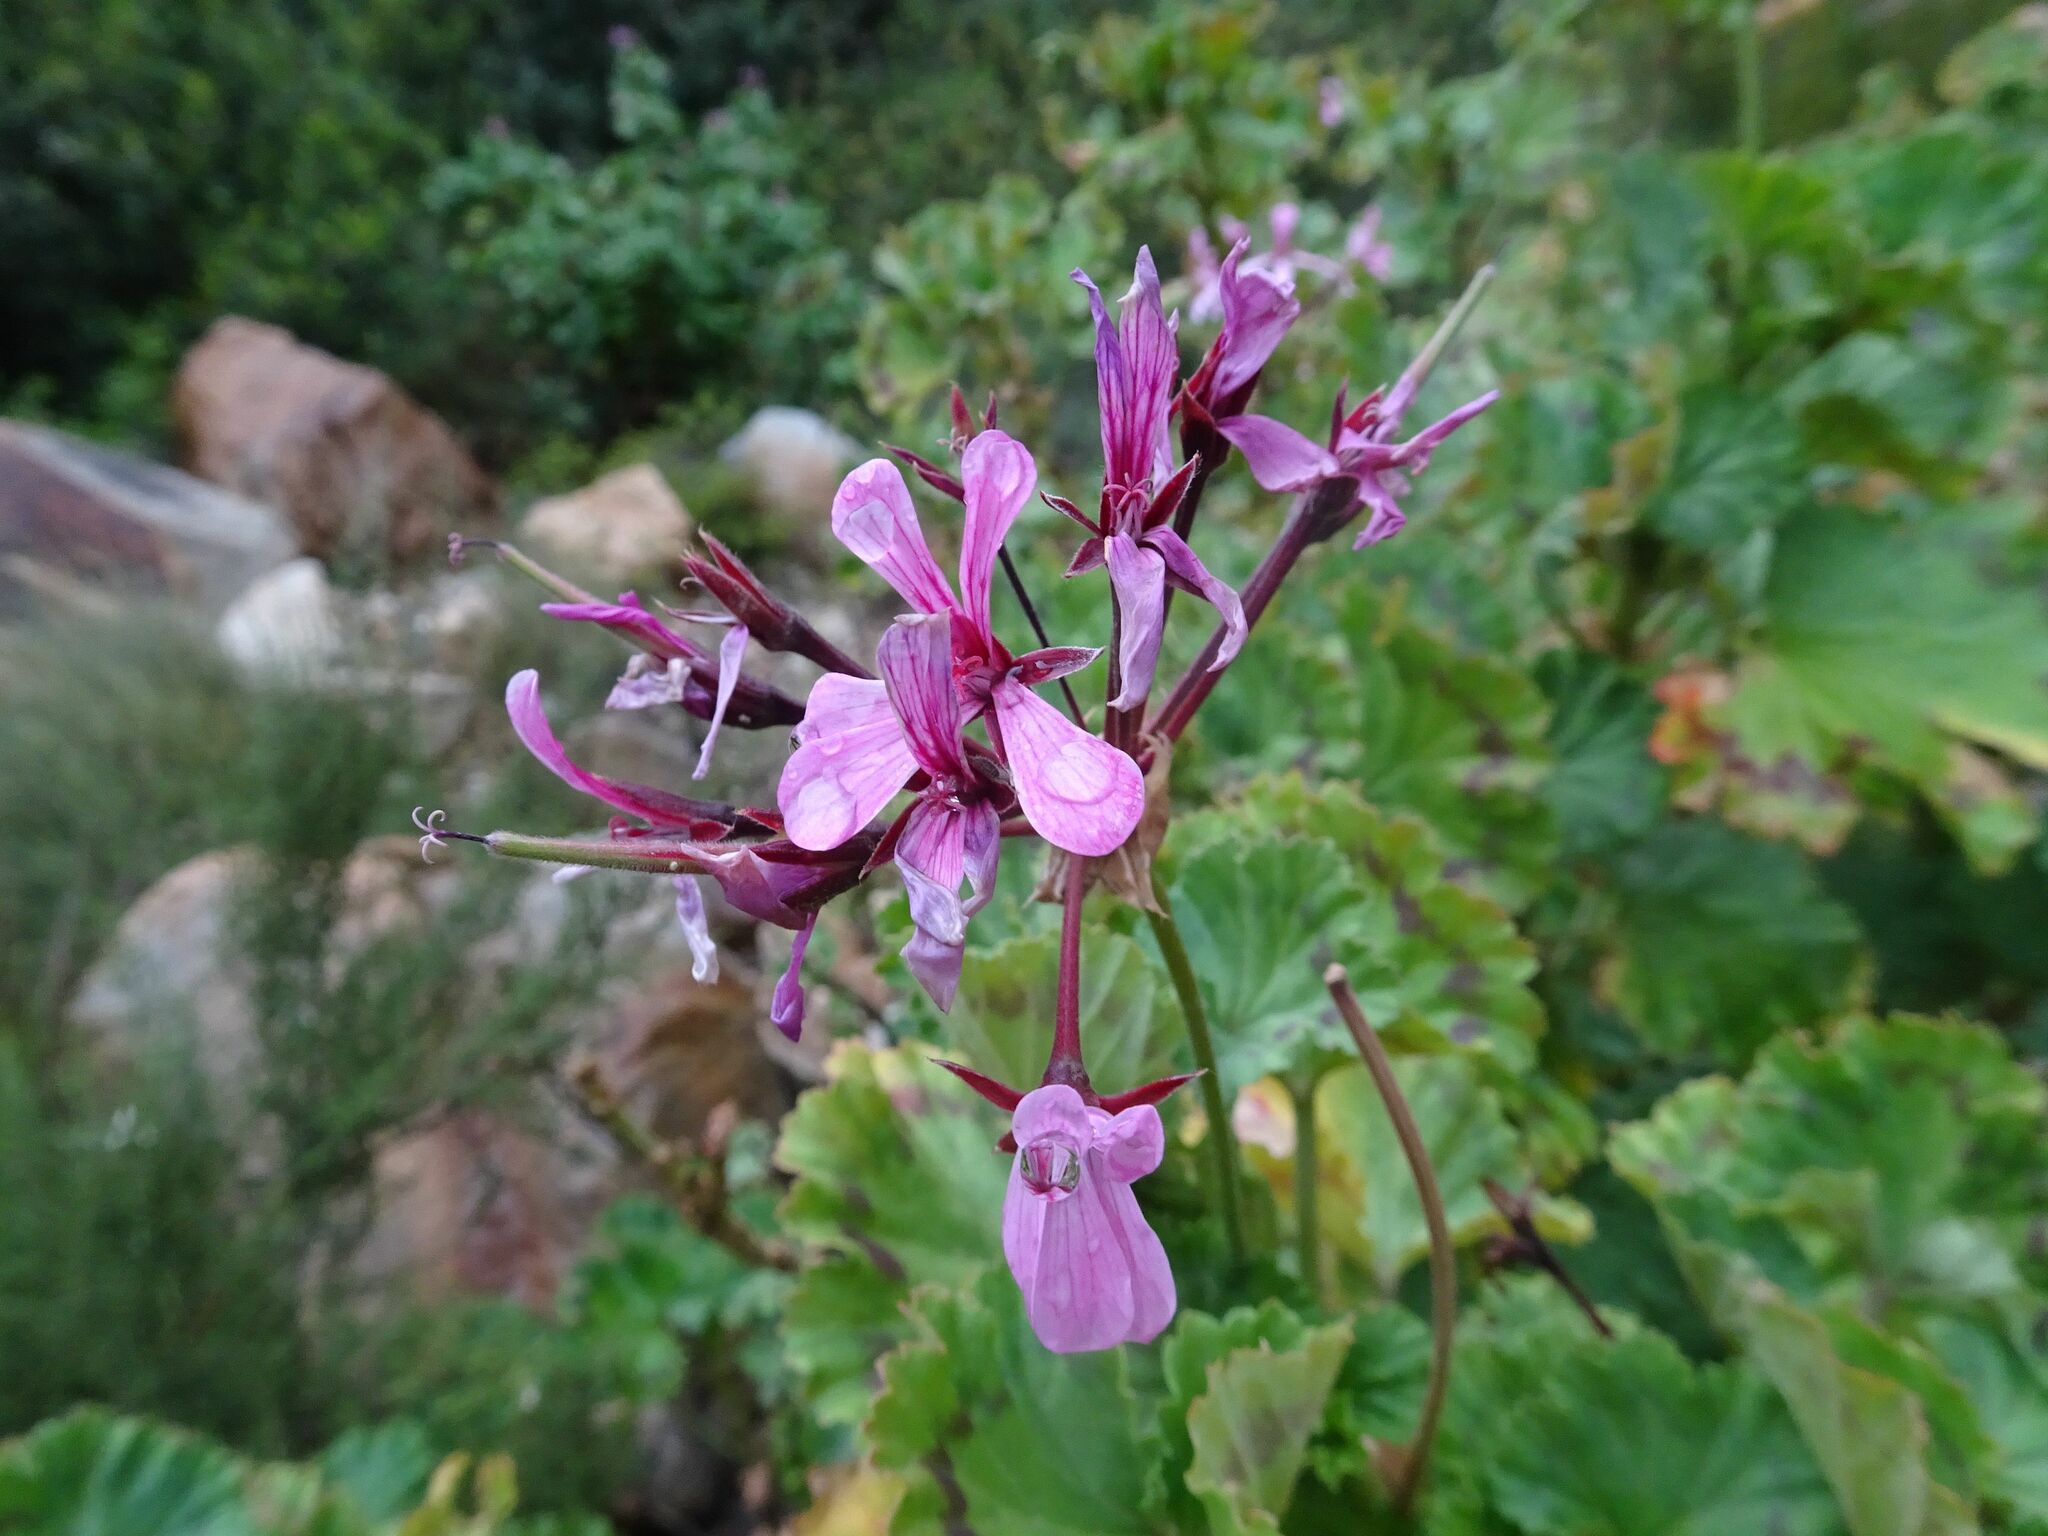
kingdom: Plantae
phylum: Tracheophyta
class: Magnoliopsida
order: Geraniales
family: Geraniaceae
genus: Pelargonium
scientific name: Pelargonium zonale
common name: Horseshoe geranium
